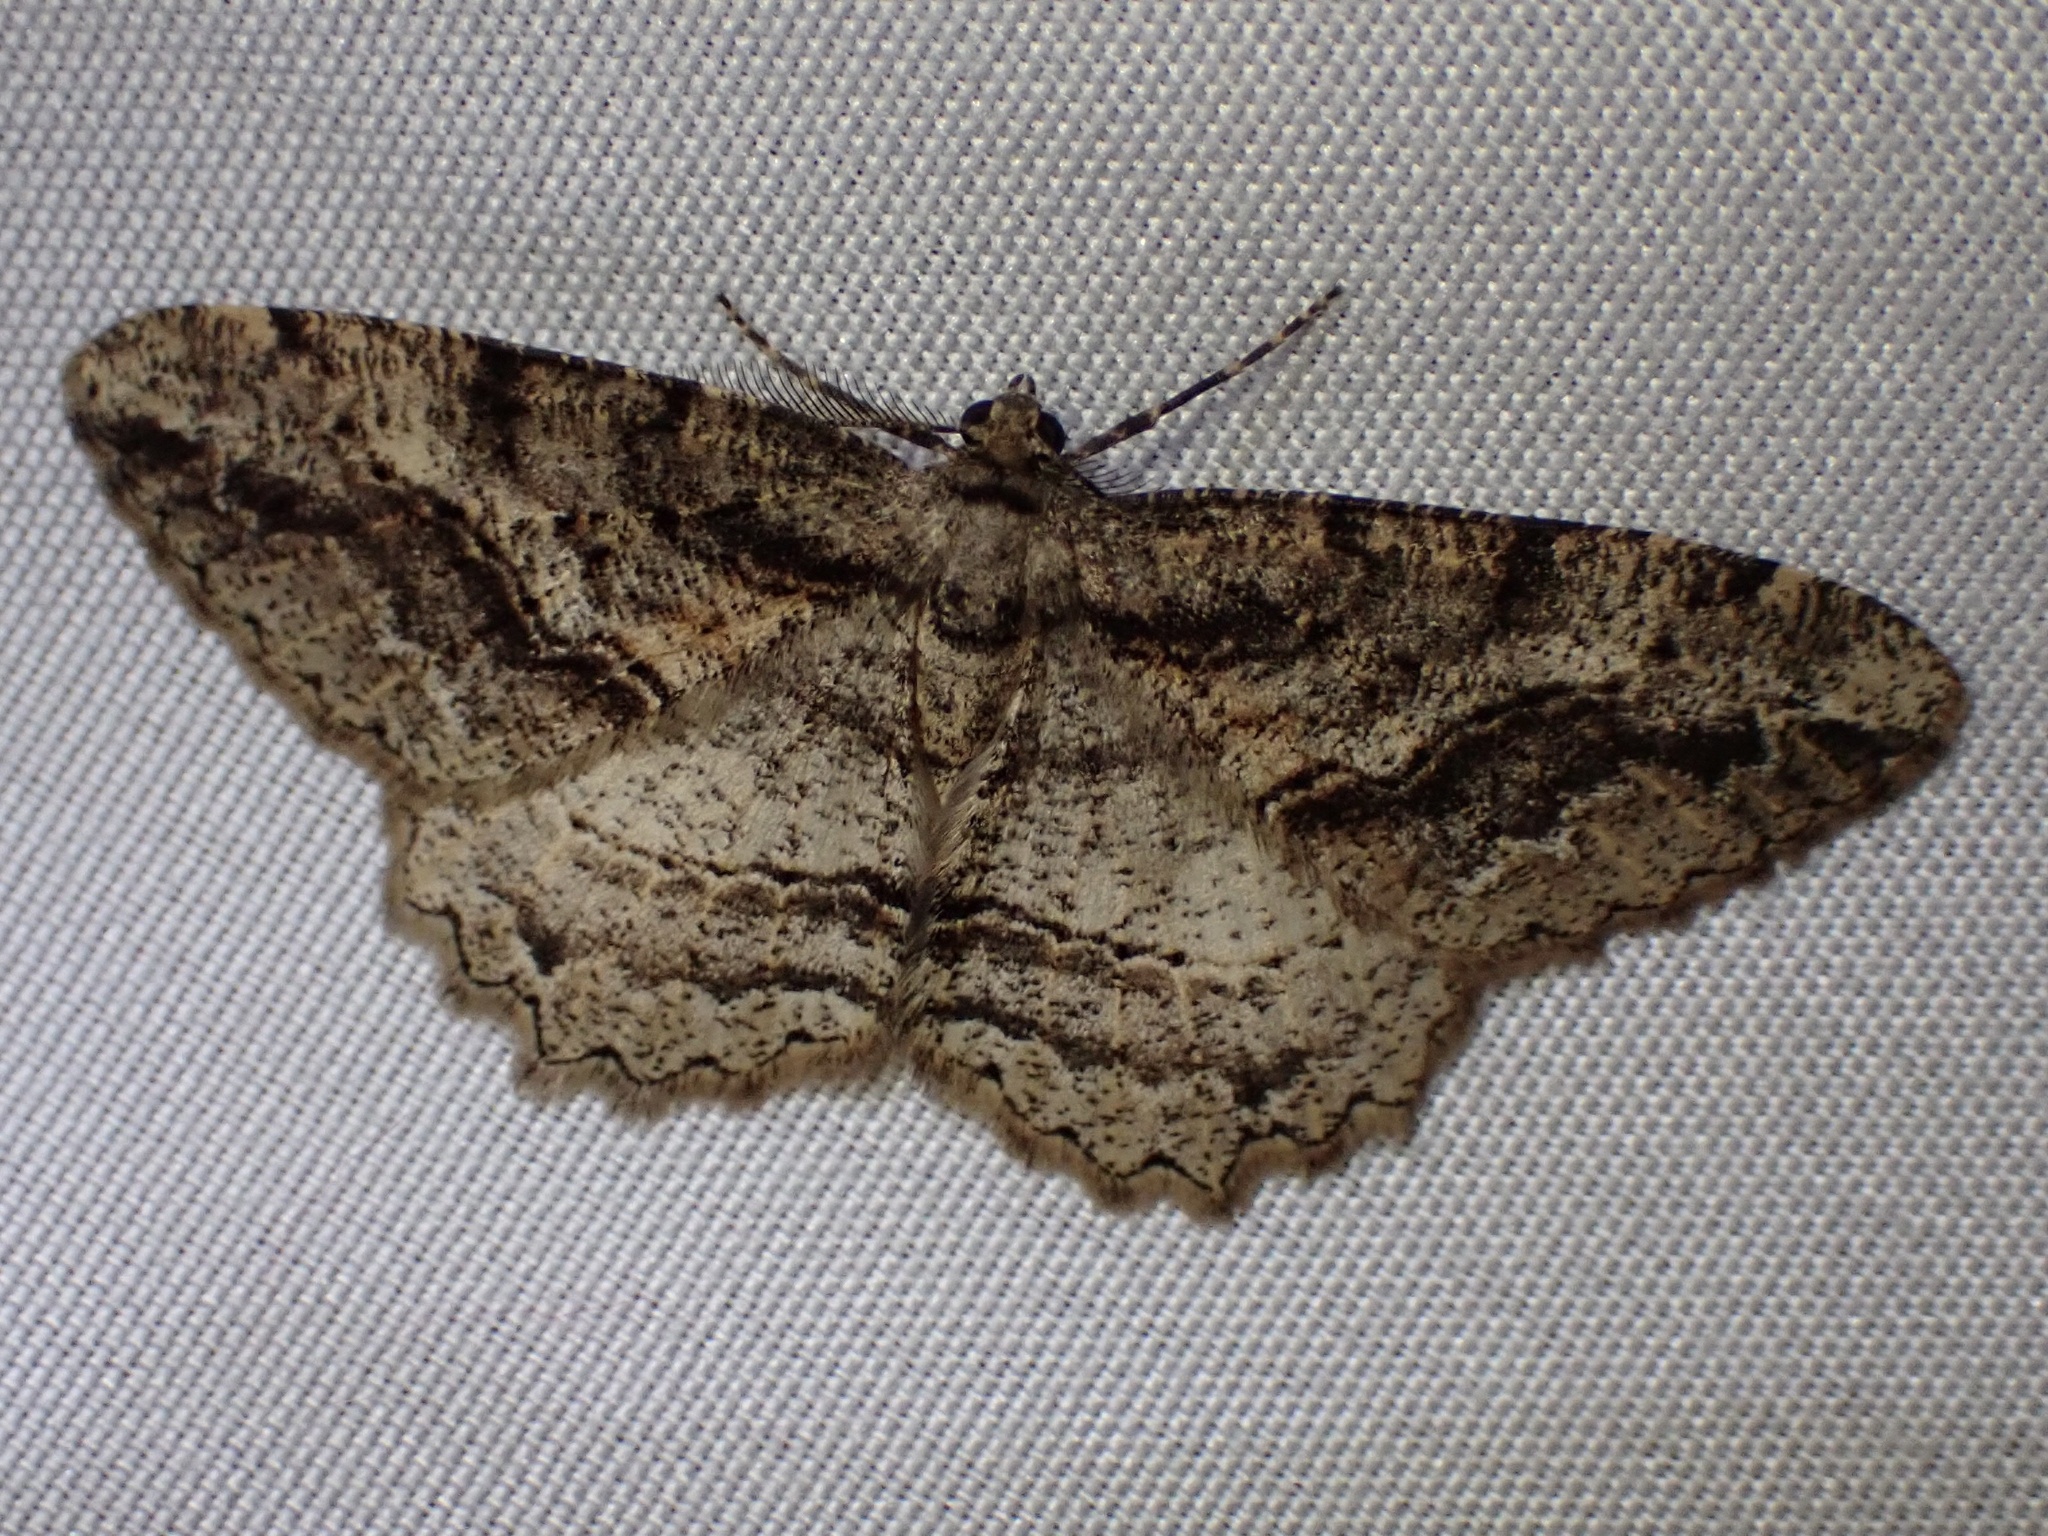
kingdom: Animalia
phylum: Arthropoda
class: Insecta
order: Lepidoptera
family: Geometridae
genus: Neoalcis
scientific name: Neoalcis californiaria
